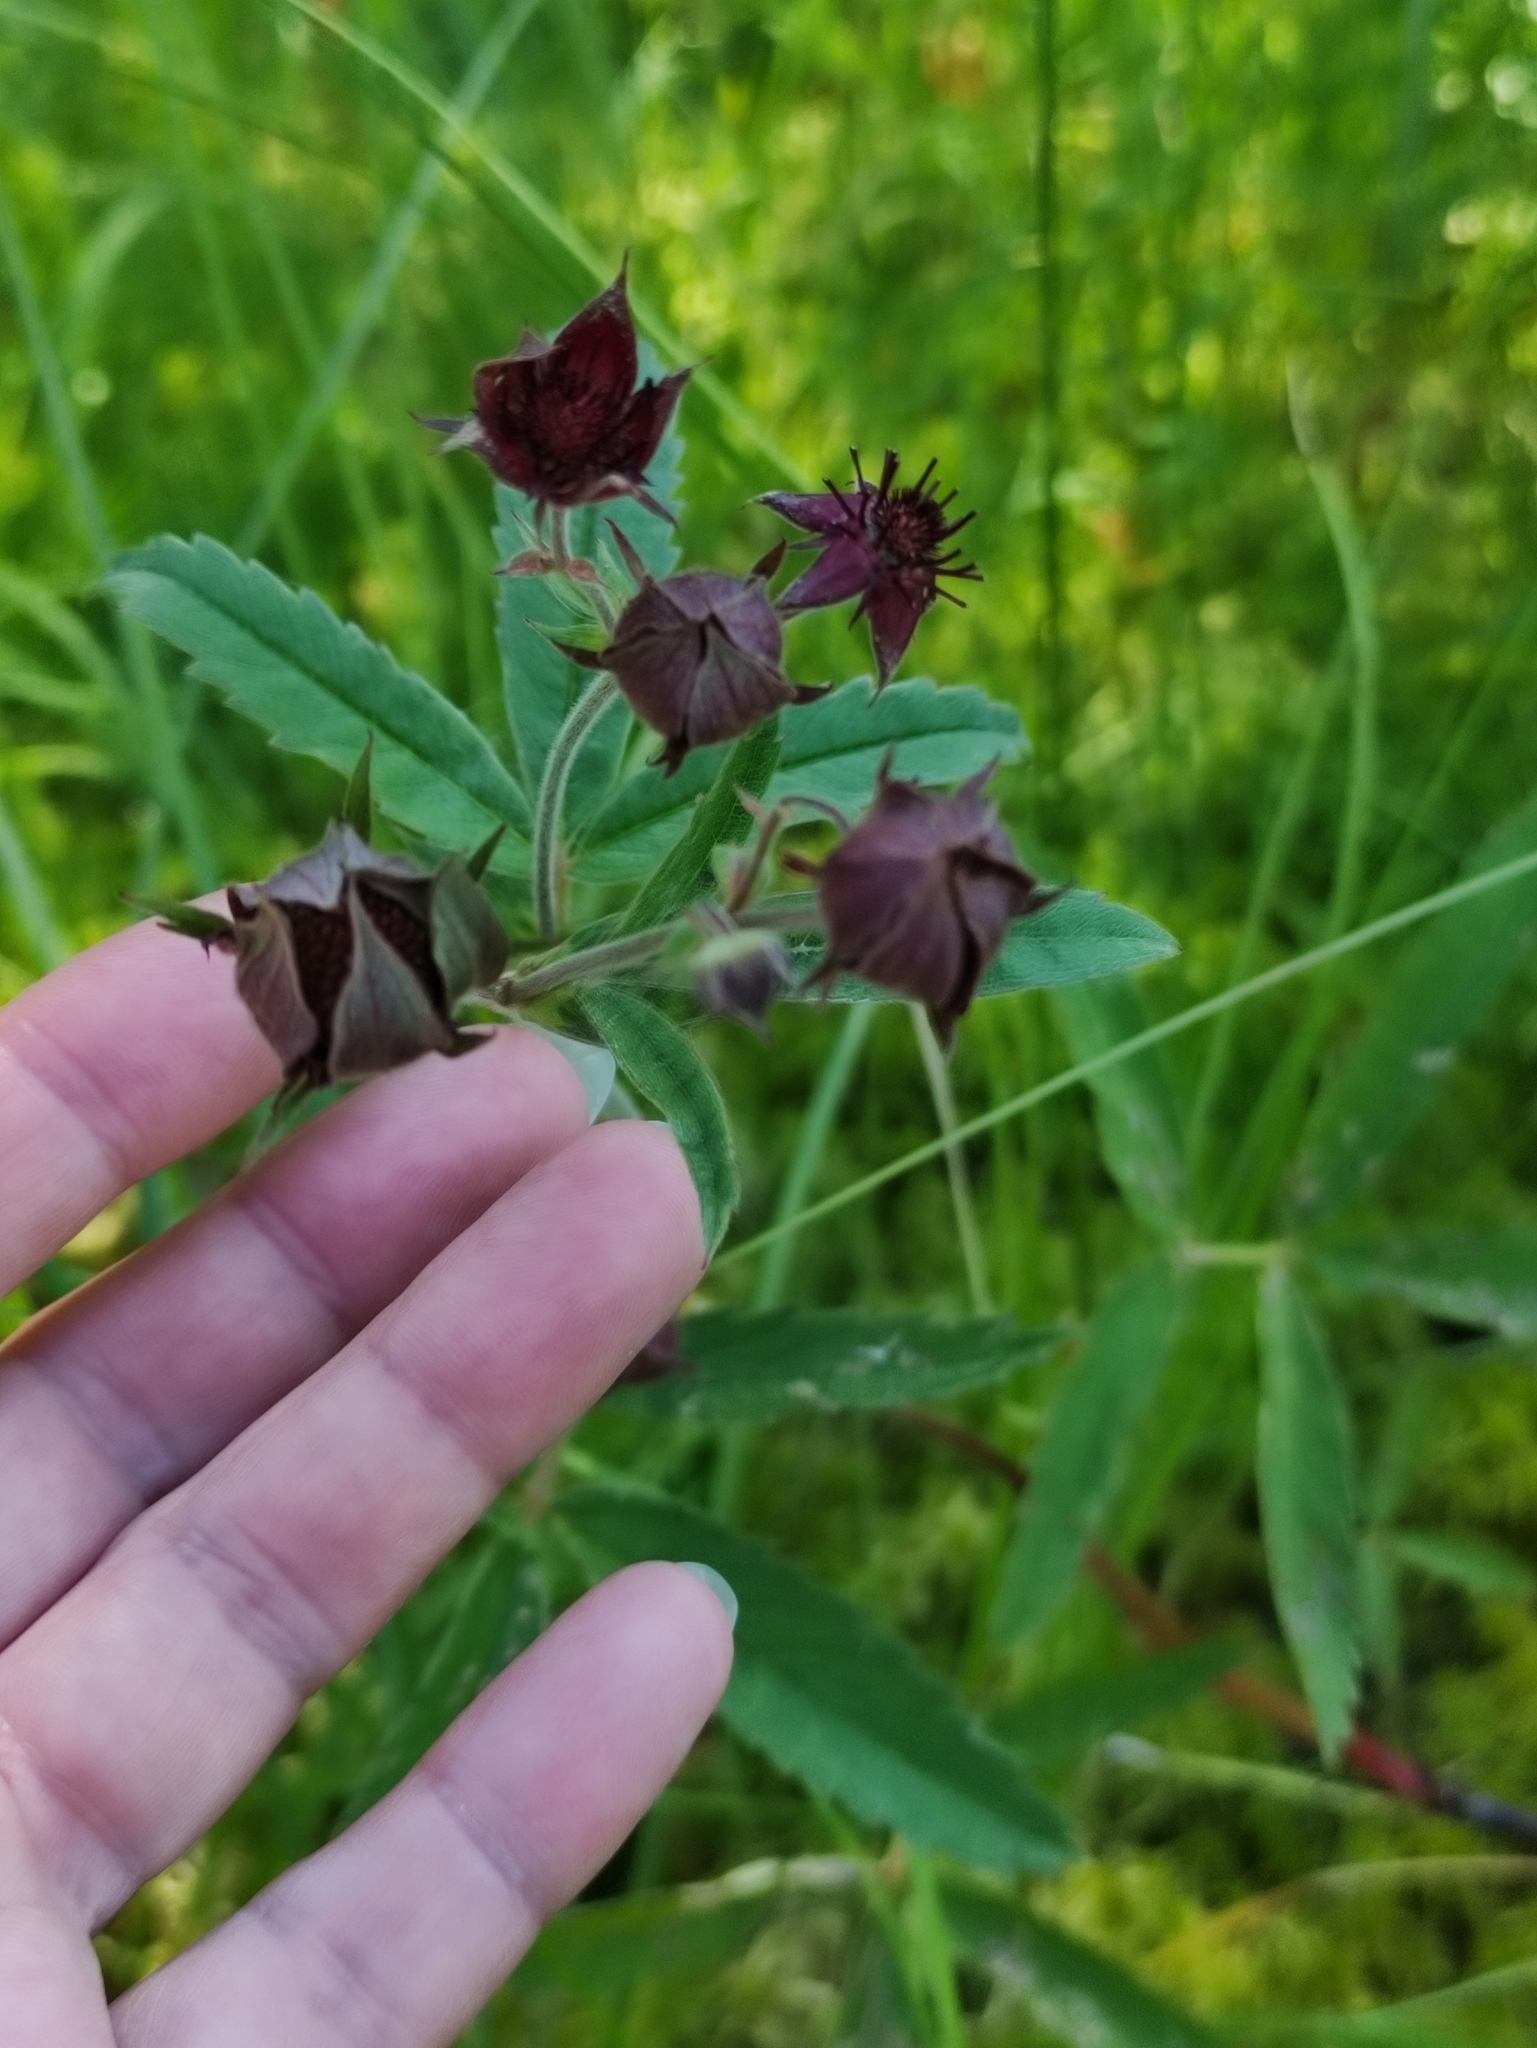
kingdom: Plantae
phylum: Tracheophyta
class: Magnoliopsida
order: Rosales
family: Rosaceae
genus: Comarum
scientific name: Comarum palustre
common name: Marsh cinquefoil
